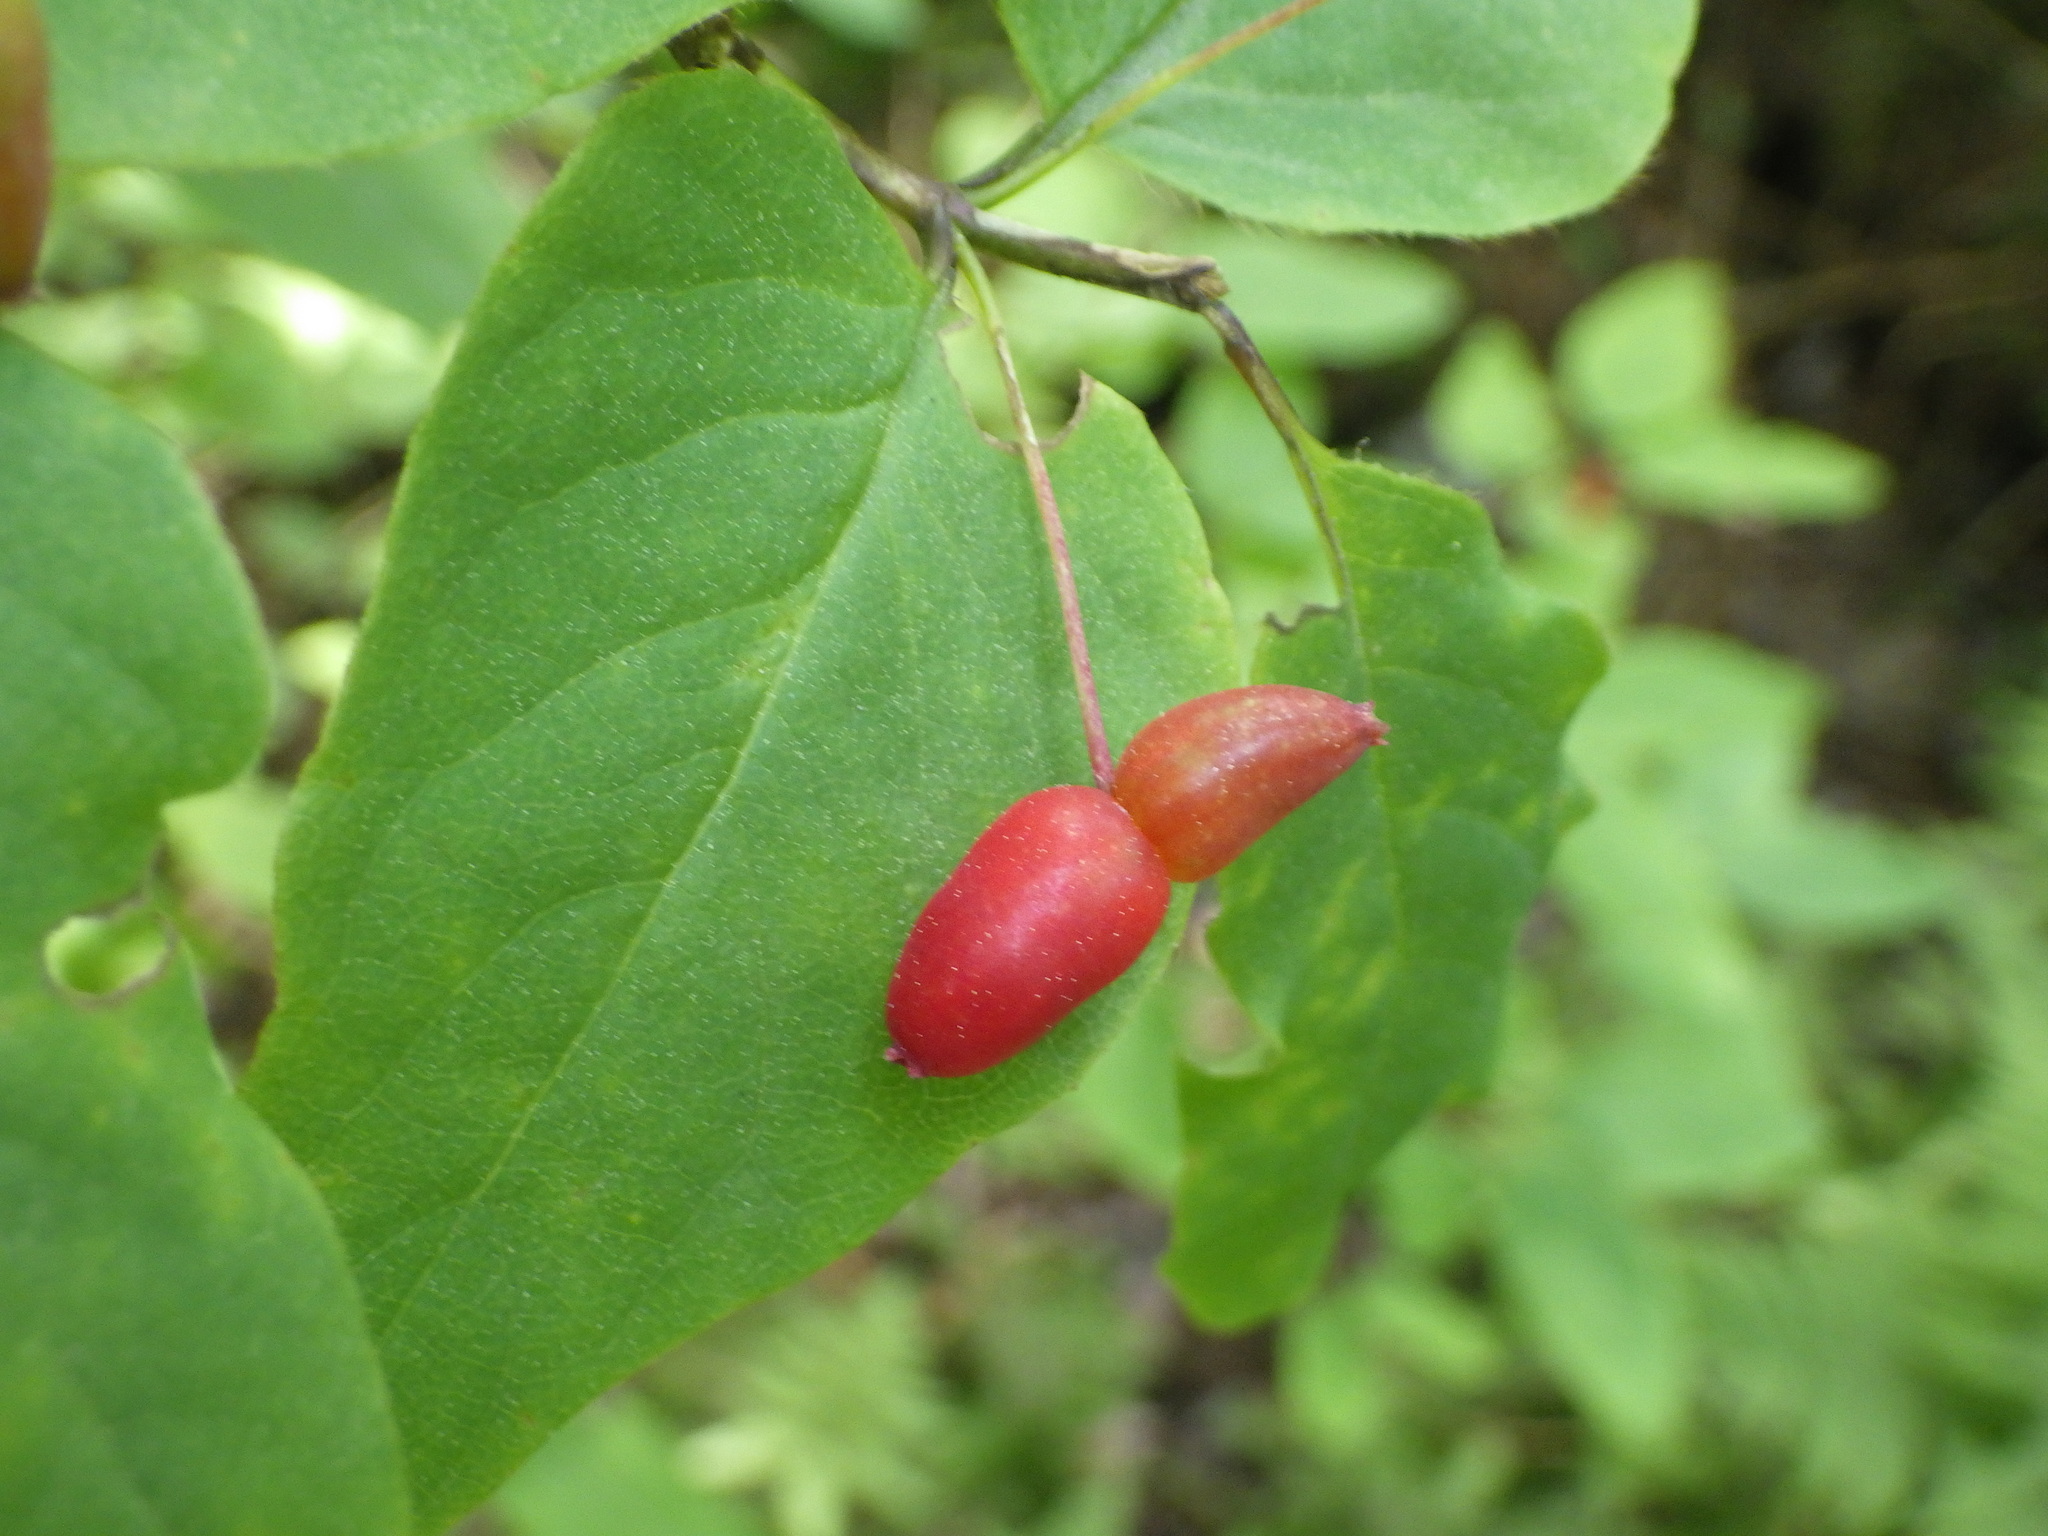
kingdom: Plantae
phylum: Tracheophyta
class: Magnoliopsida
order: Dipsacales
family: Caprifoliaceae
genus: Lonicera
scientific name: Lonicera canadensis
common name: American fly-honeysuckle
